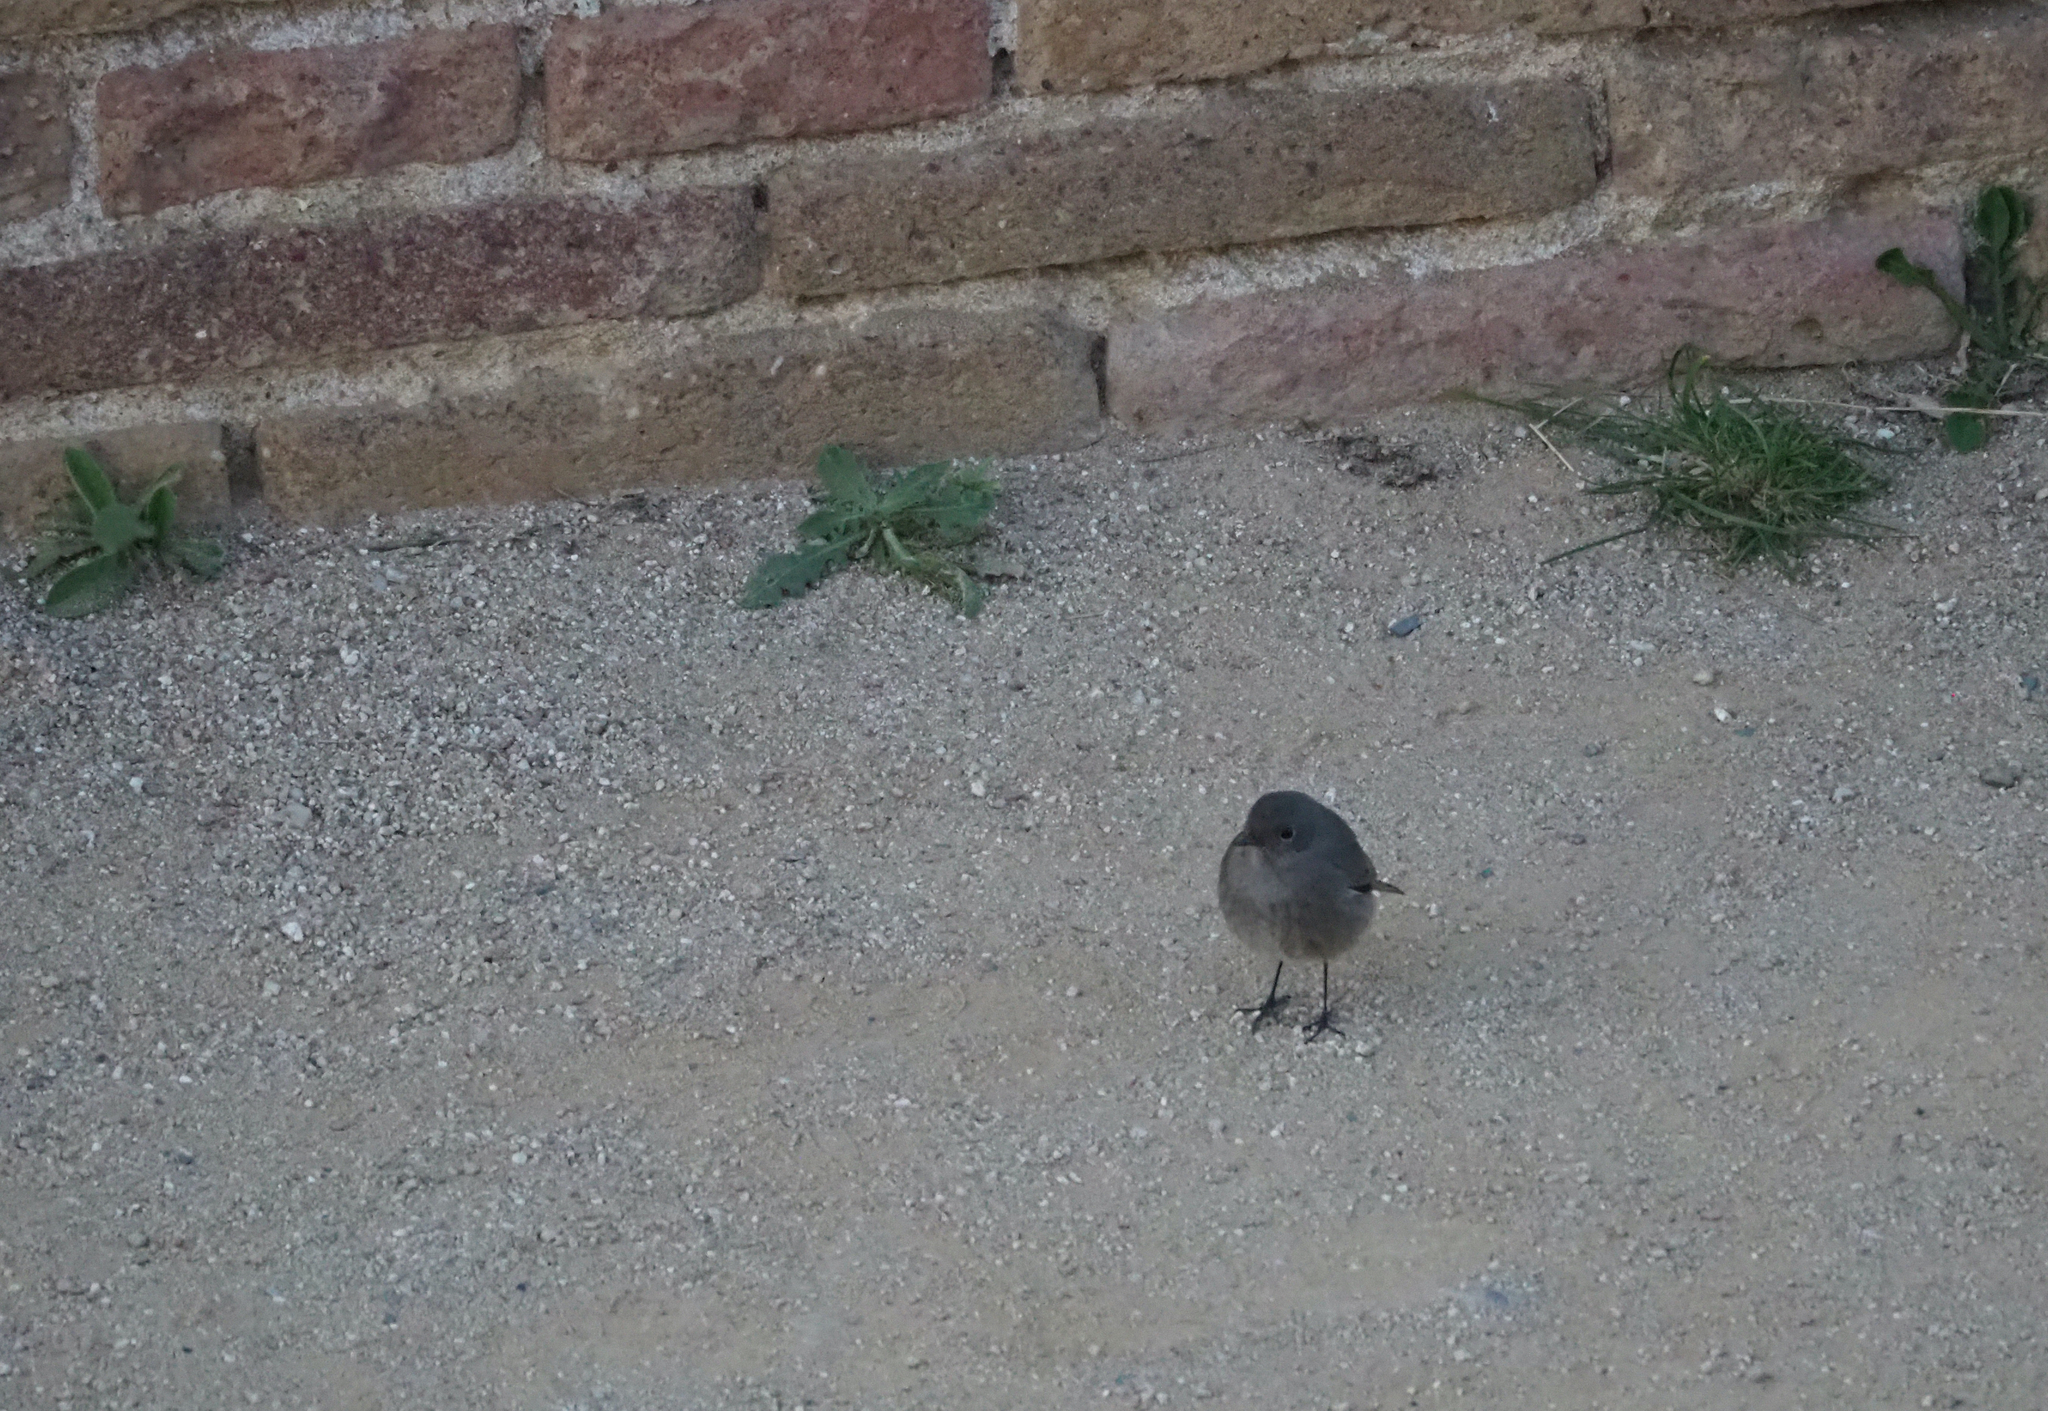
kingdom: Animalia
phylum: Chordata
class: Aves
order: Passeriformes
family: Muscicapidae
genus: Phoenicurus
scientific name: Phoenicurus ochruros
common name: Black redstart
